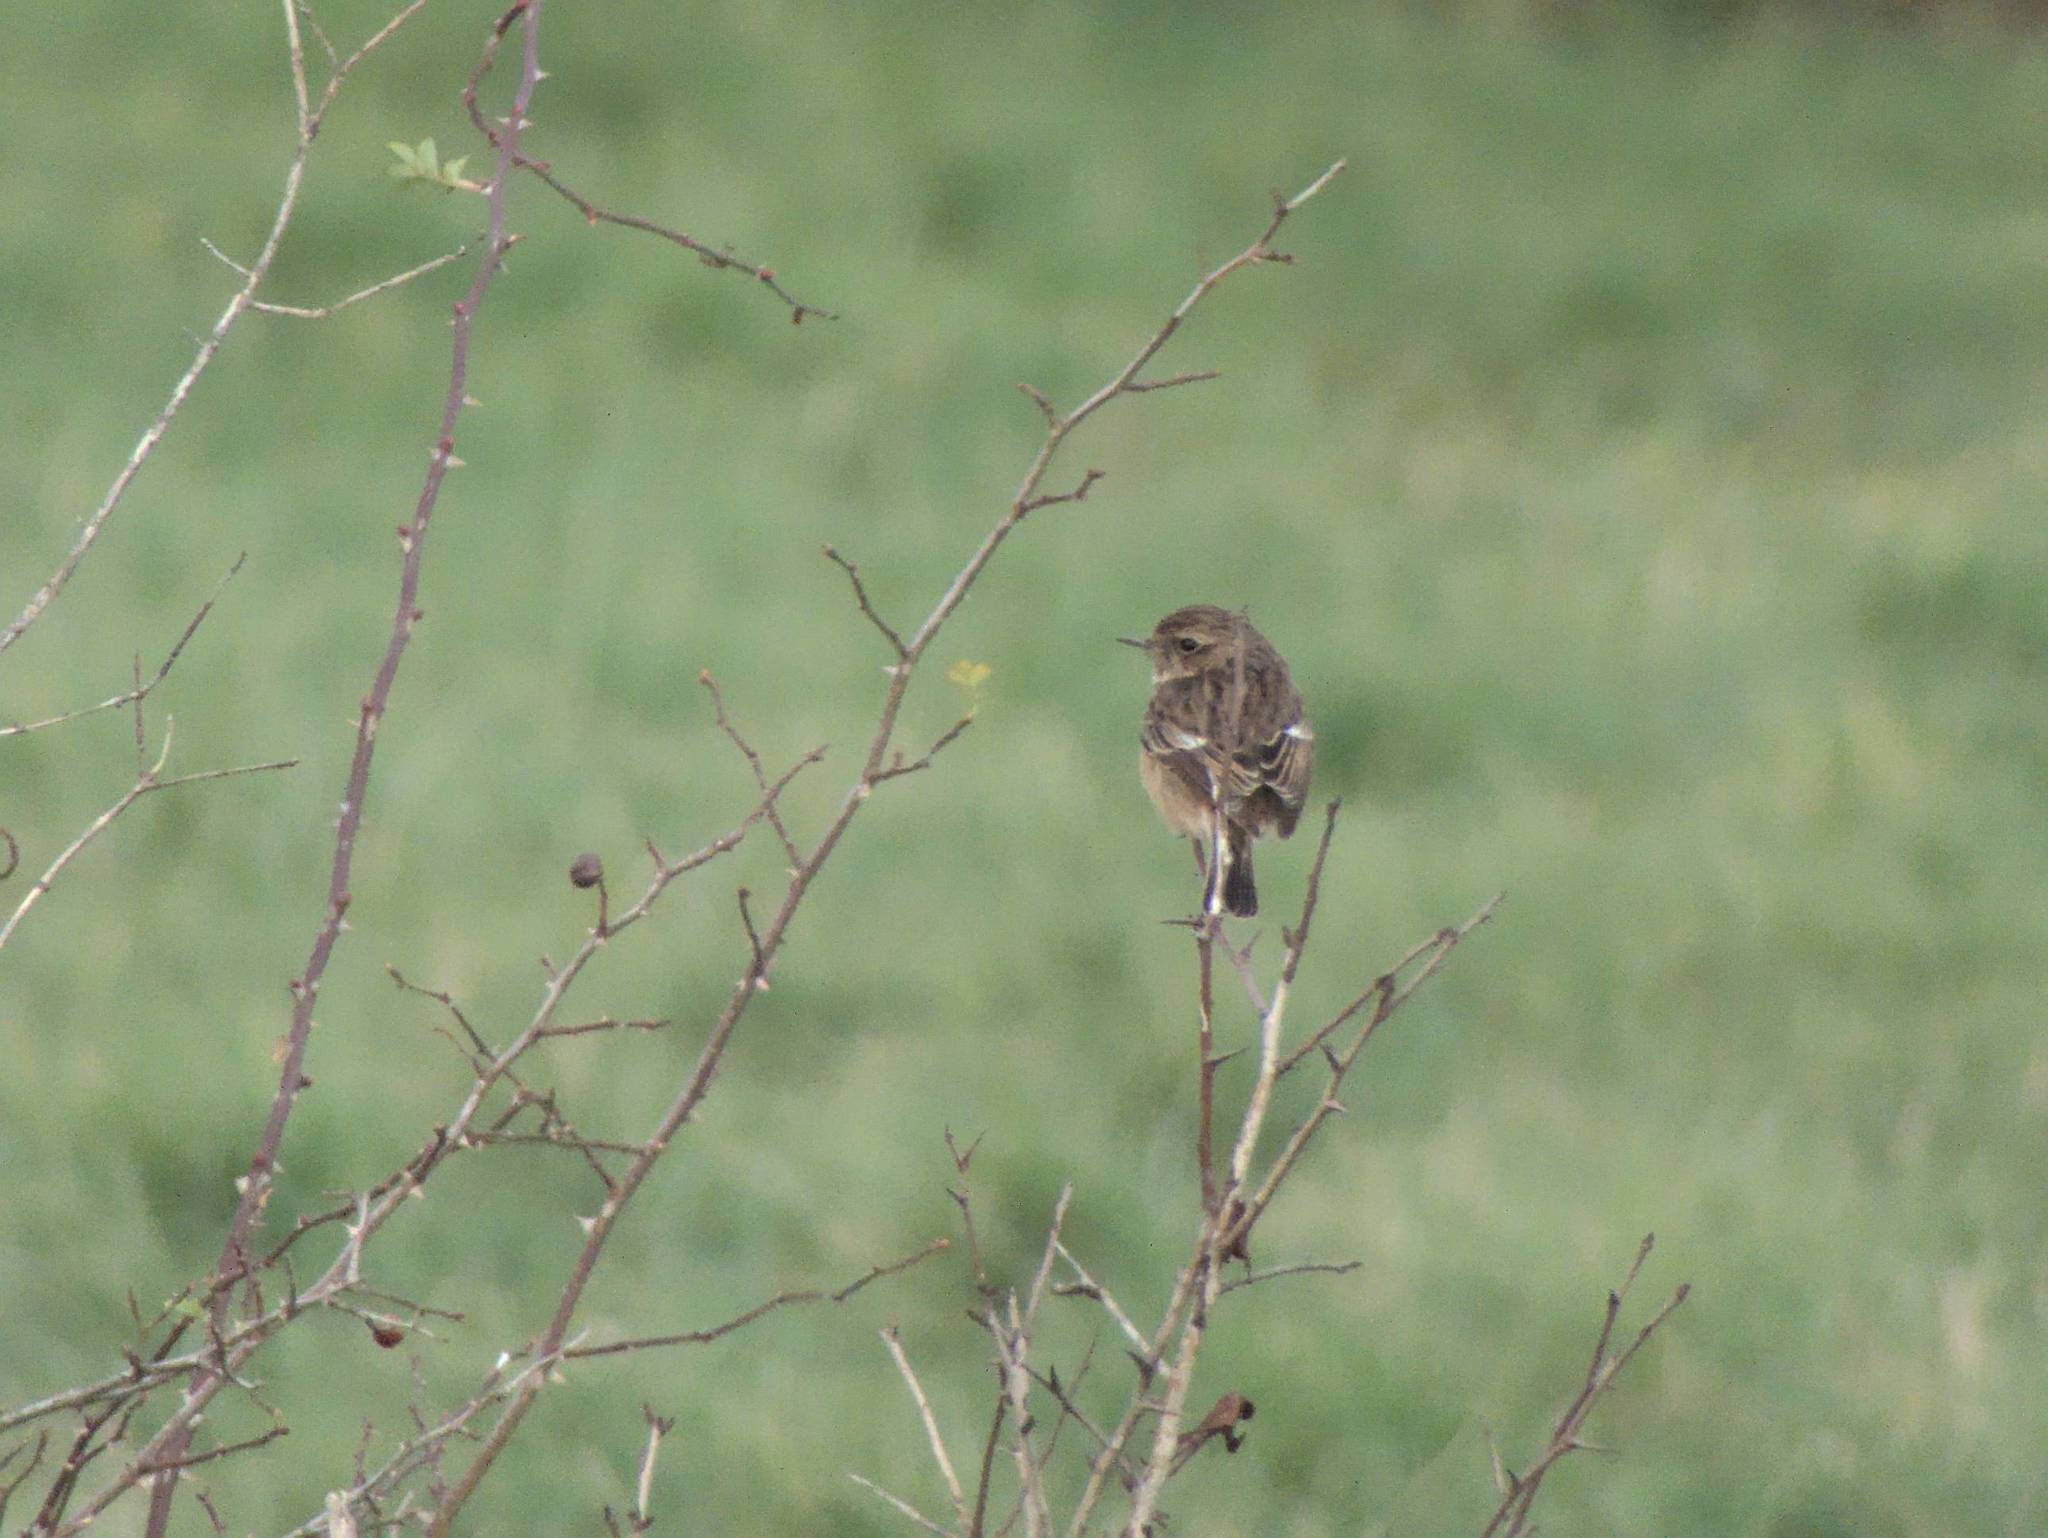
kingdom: Animalia
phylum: Chordata
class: Aves
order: Passeriformes
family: Muscicapidae
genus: Saxicola
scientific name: Saxicola rubicola
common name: European stonechat
